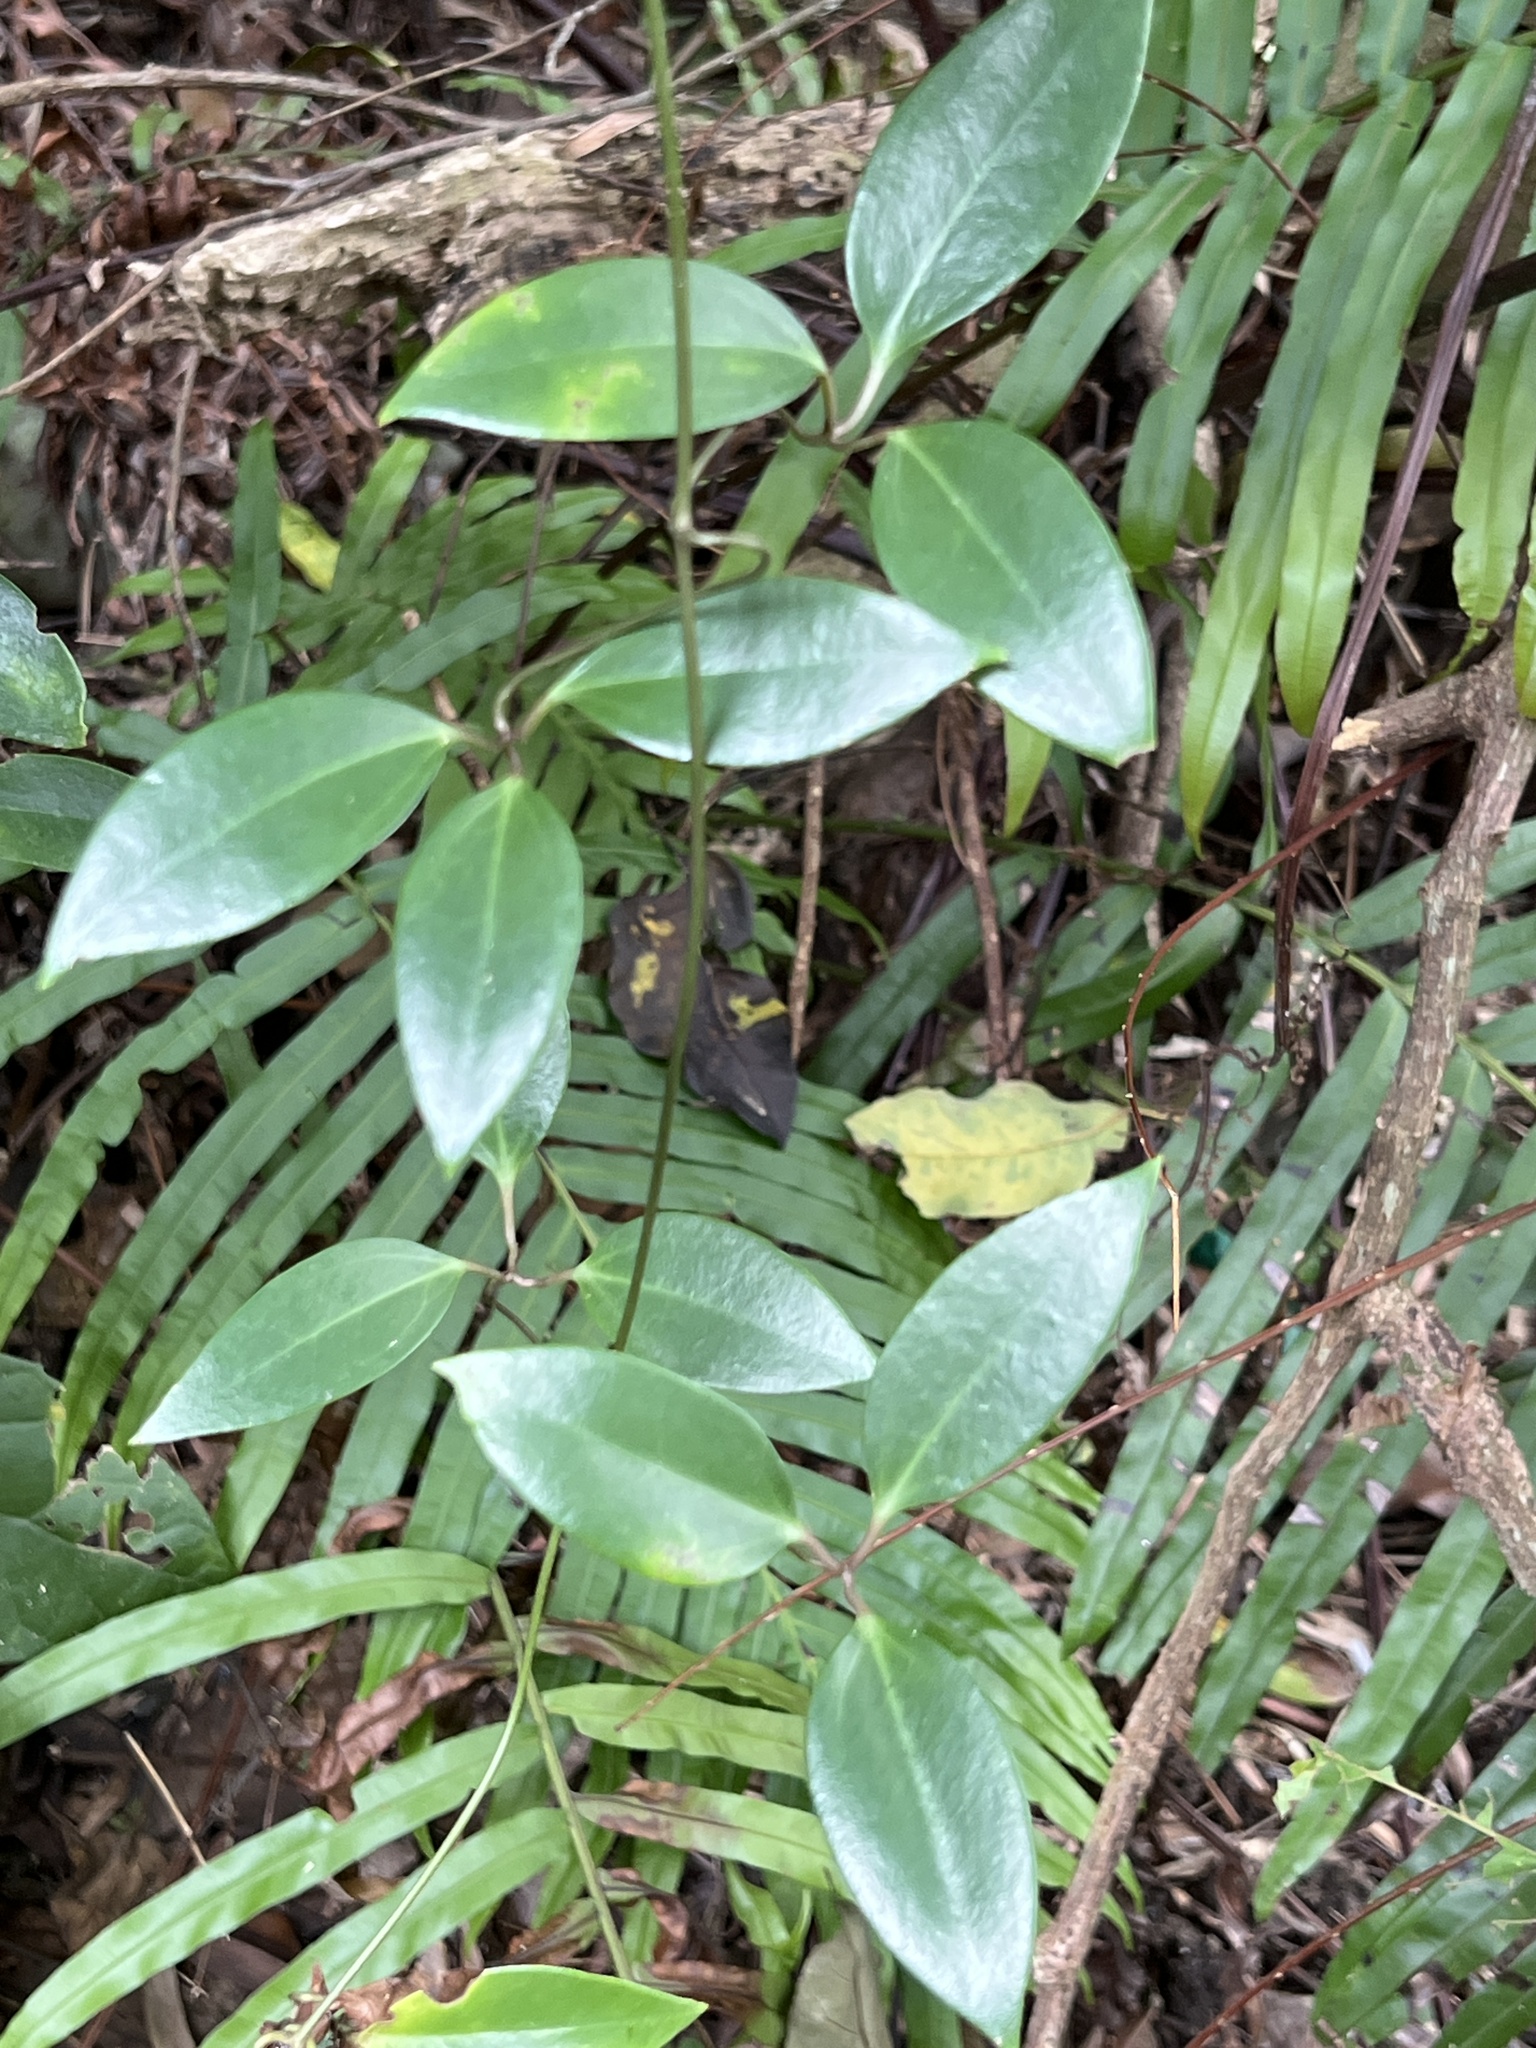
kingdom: Plantae
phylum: Tracheophyta
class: Magnoliopsida
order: Ranunculales
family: Ranunculaceae
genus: Clematis
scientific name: Clematis crassifolia
